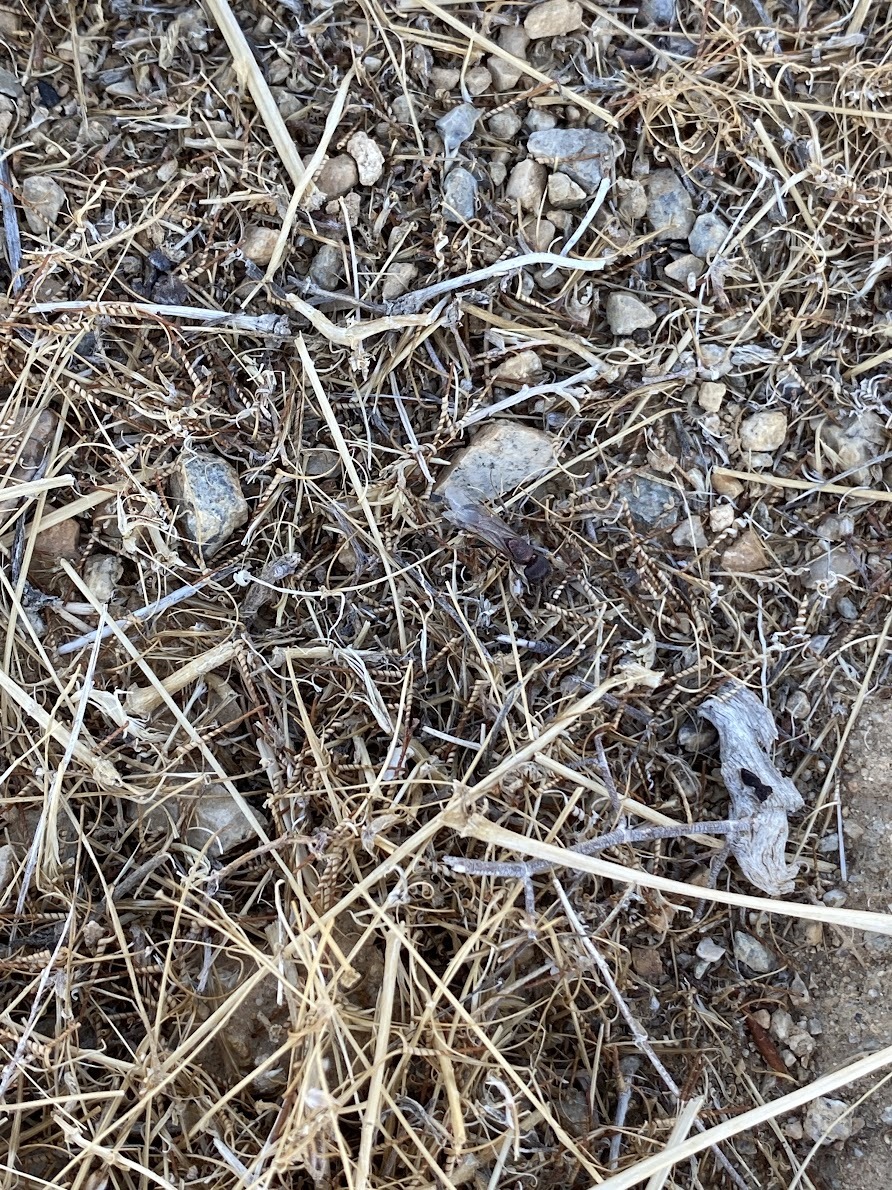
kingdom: Animalia
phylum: Arthropoda
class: Insecta
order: Hymenoptera
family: Formicidae
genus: Pogonomyrmex
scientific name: Pogonomyrmex rugosus
